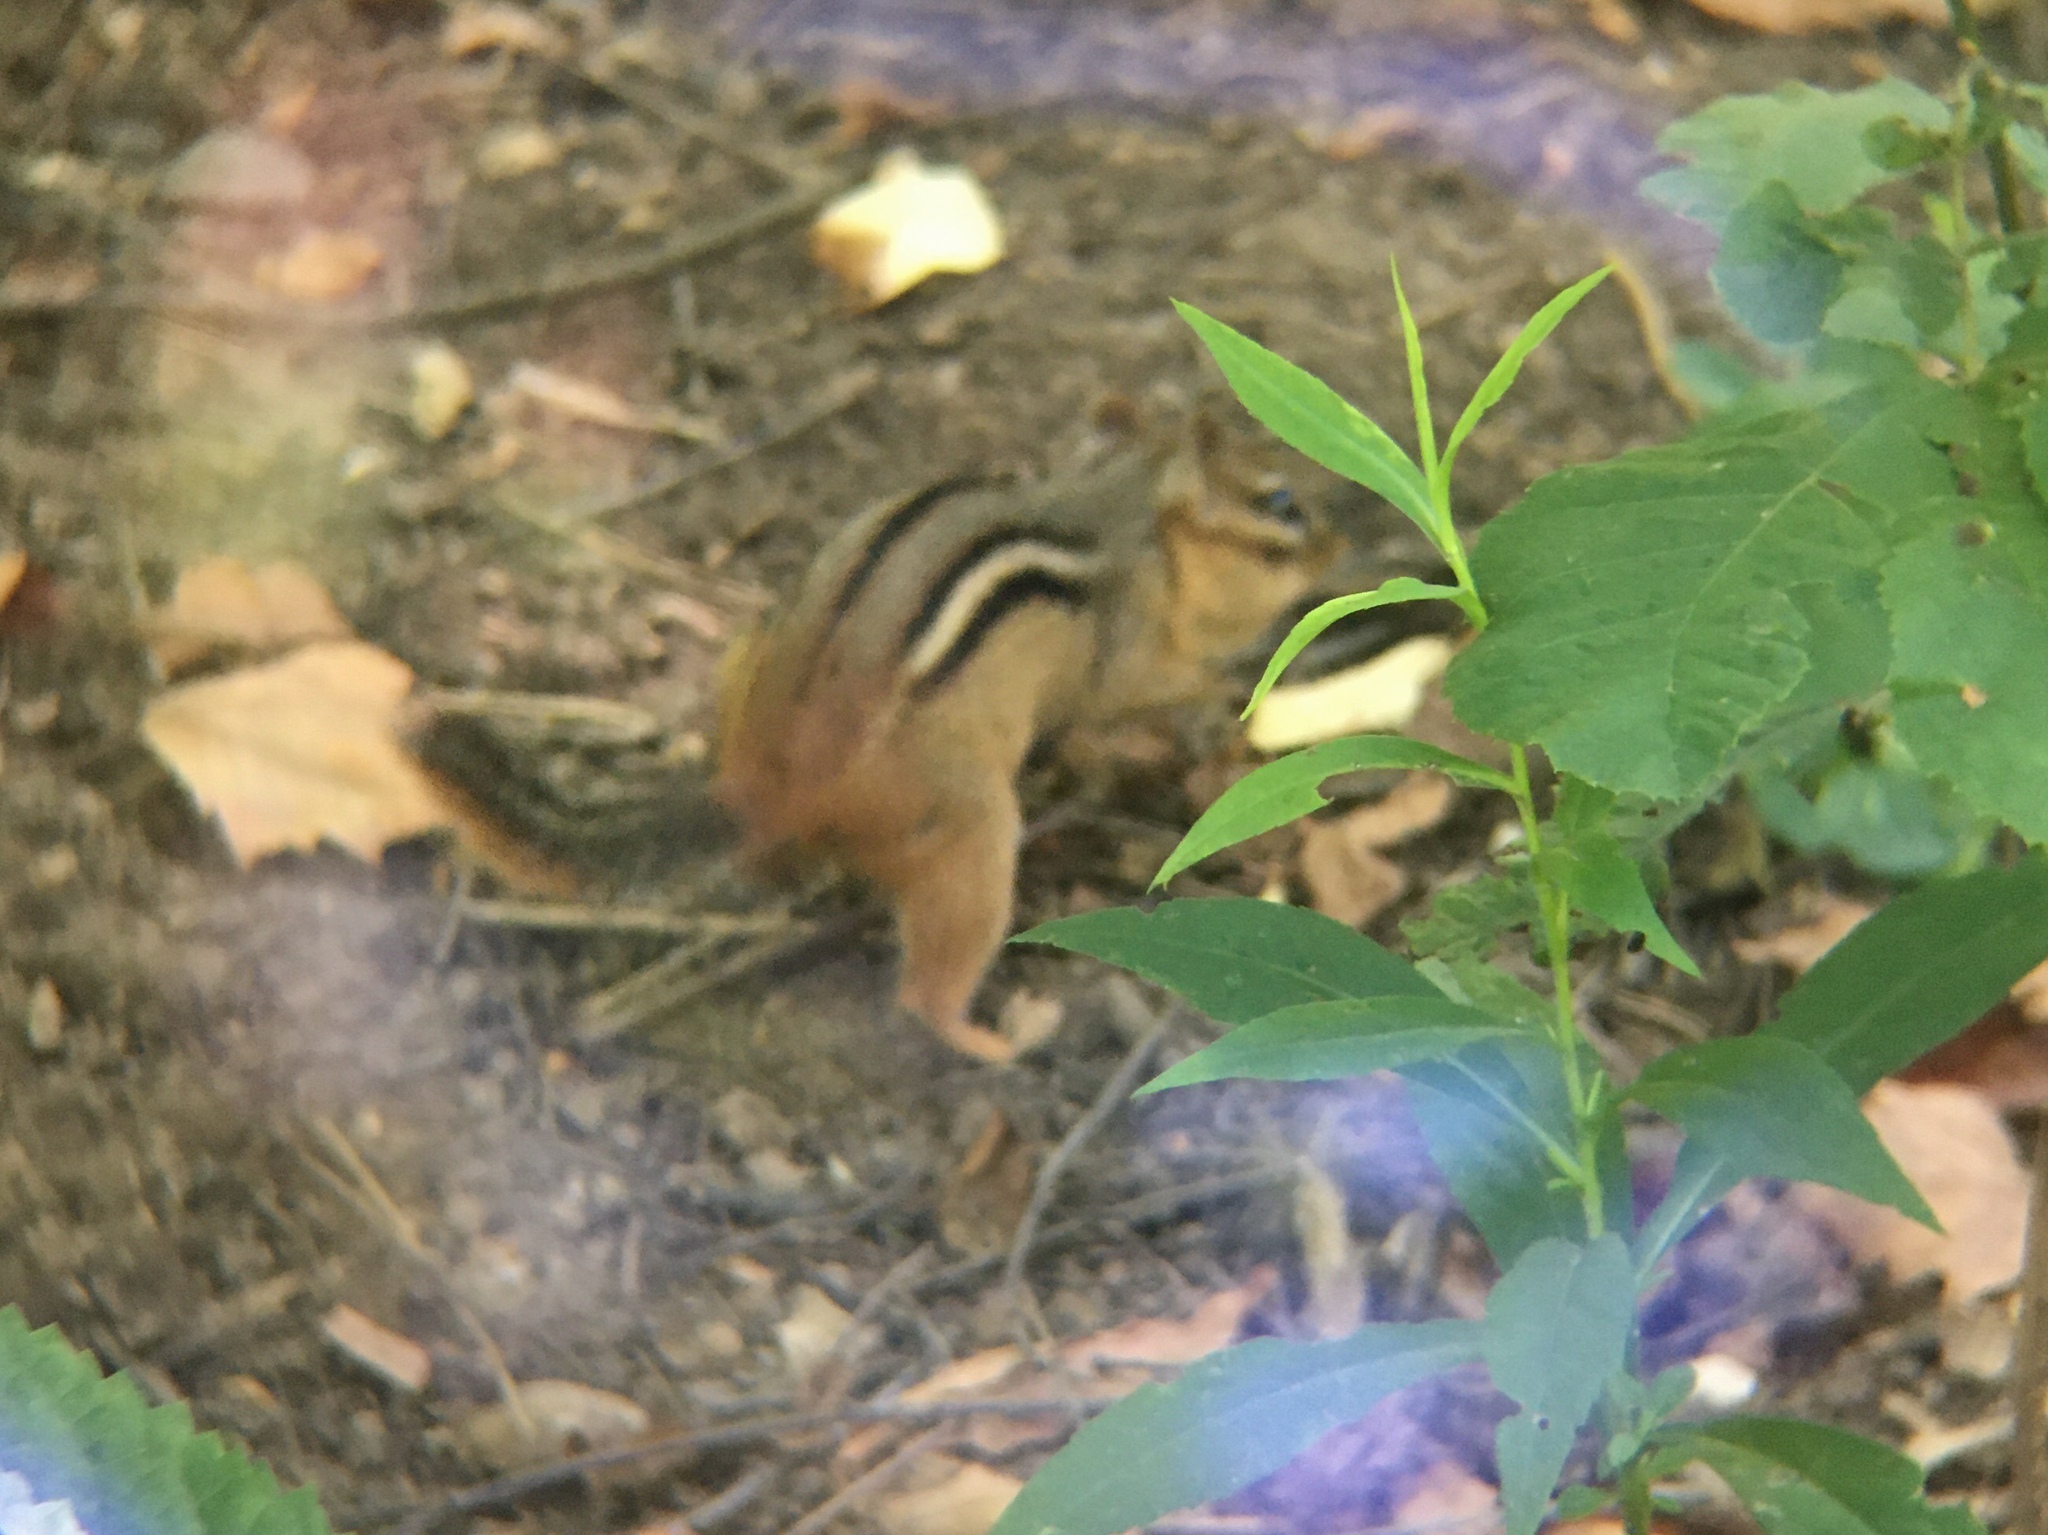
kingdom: Animalia
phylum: Chordata
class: Mammalia
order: Rodentia
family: Sciuridae
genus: Tamias
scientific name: Tamias striatus
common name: Eastern chipmunk
